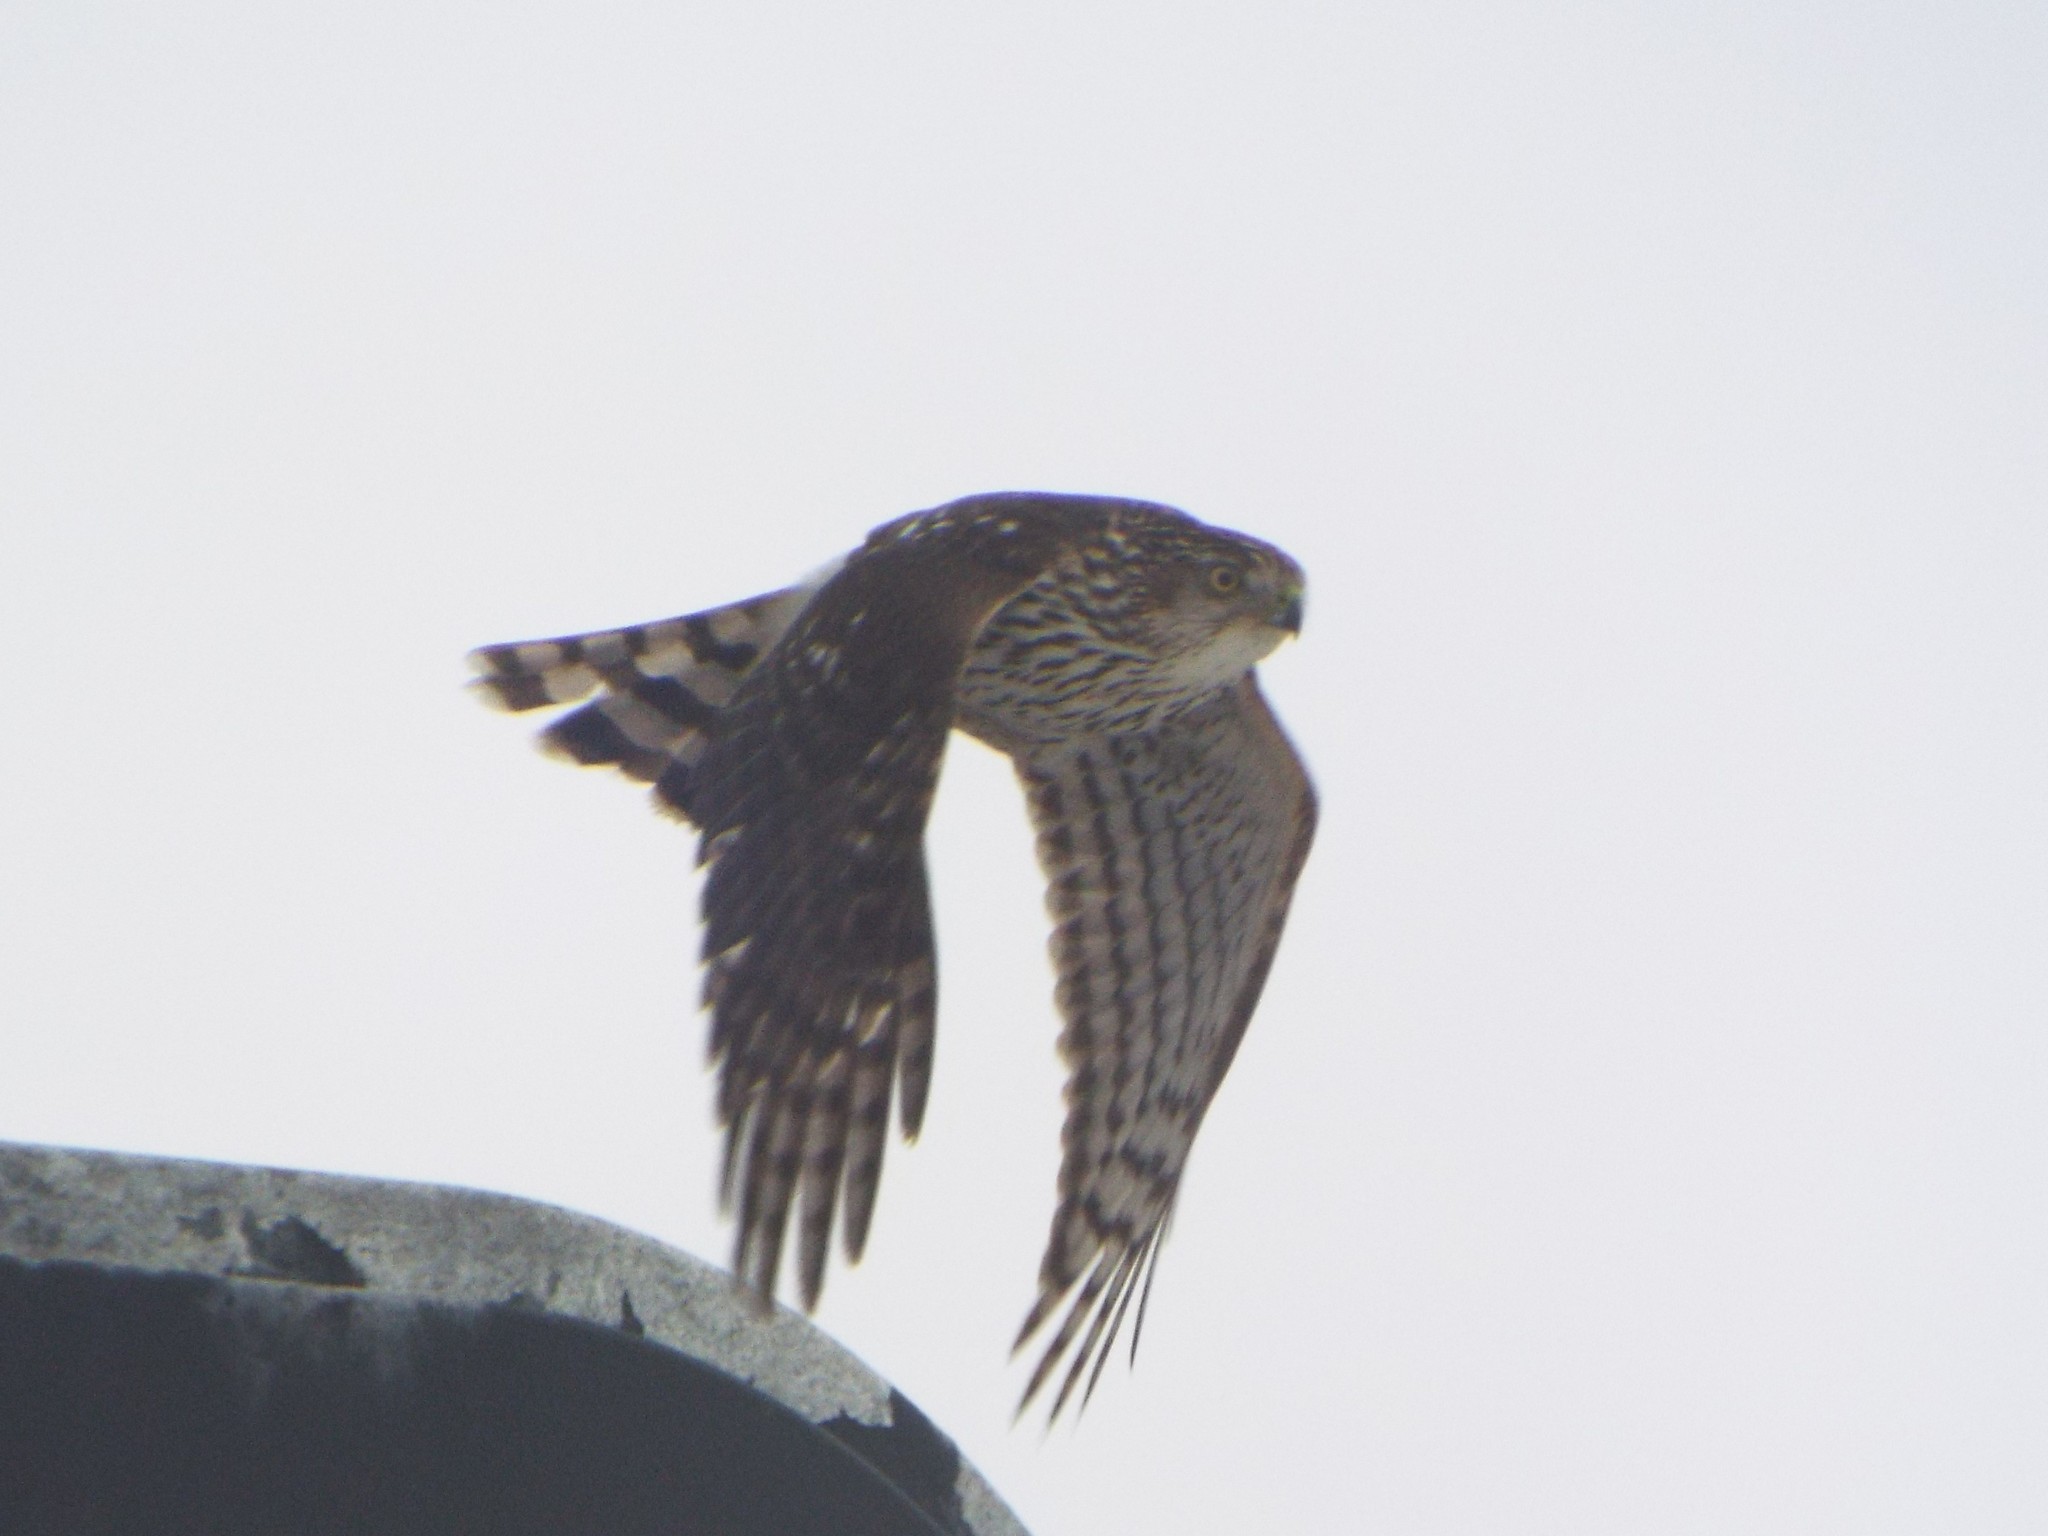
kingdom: Animalia
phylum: Chordata
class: Aves
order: Accipitriformes
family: Accipitridae
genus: Accipiter
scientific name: Accipiter cooperii
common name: Cooper's hawk
